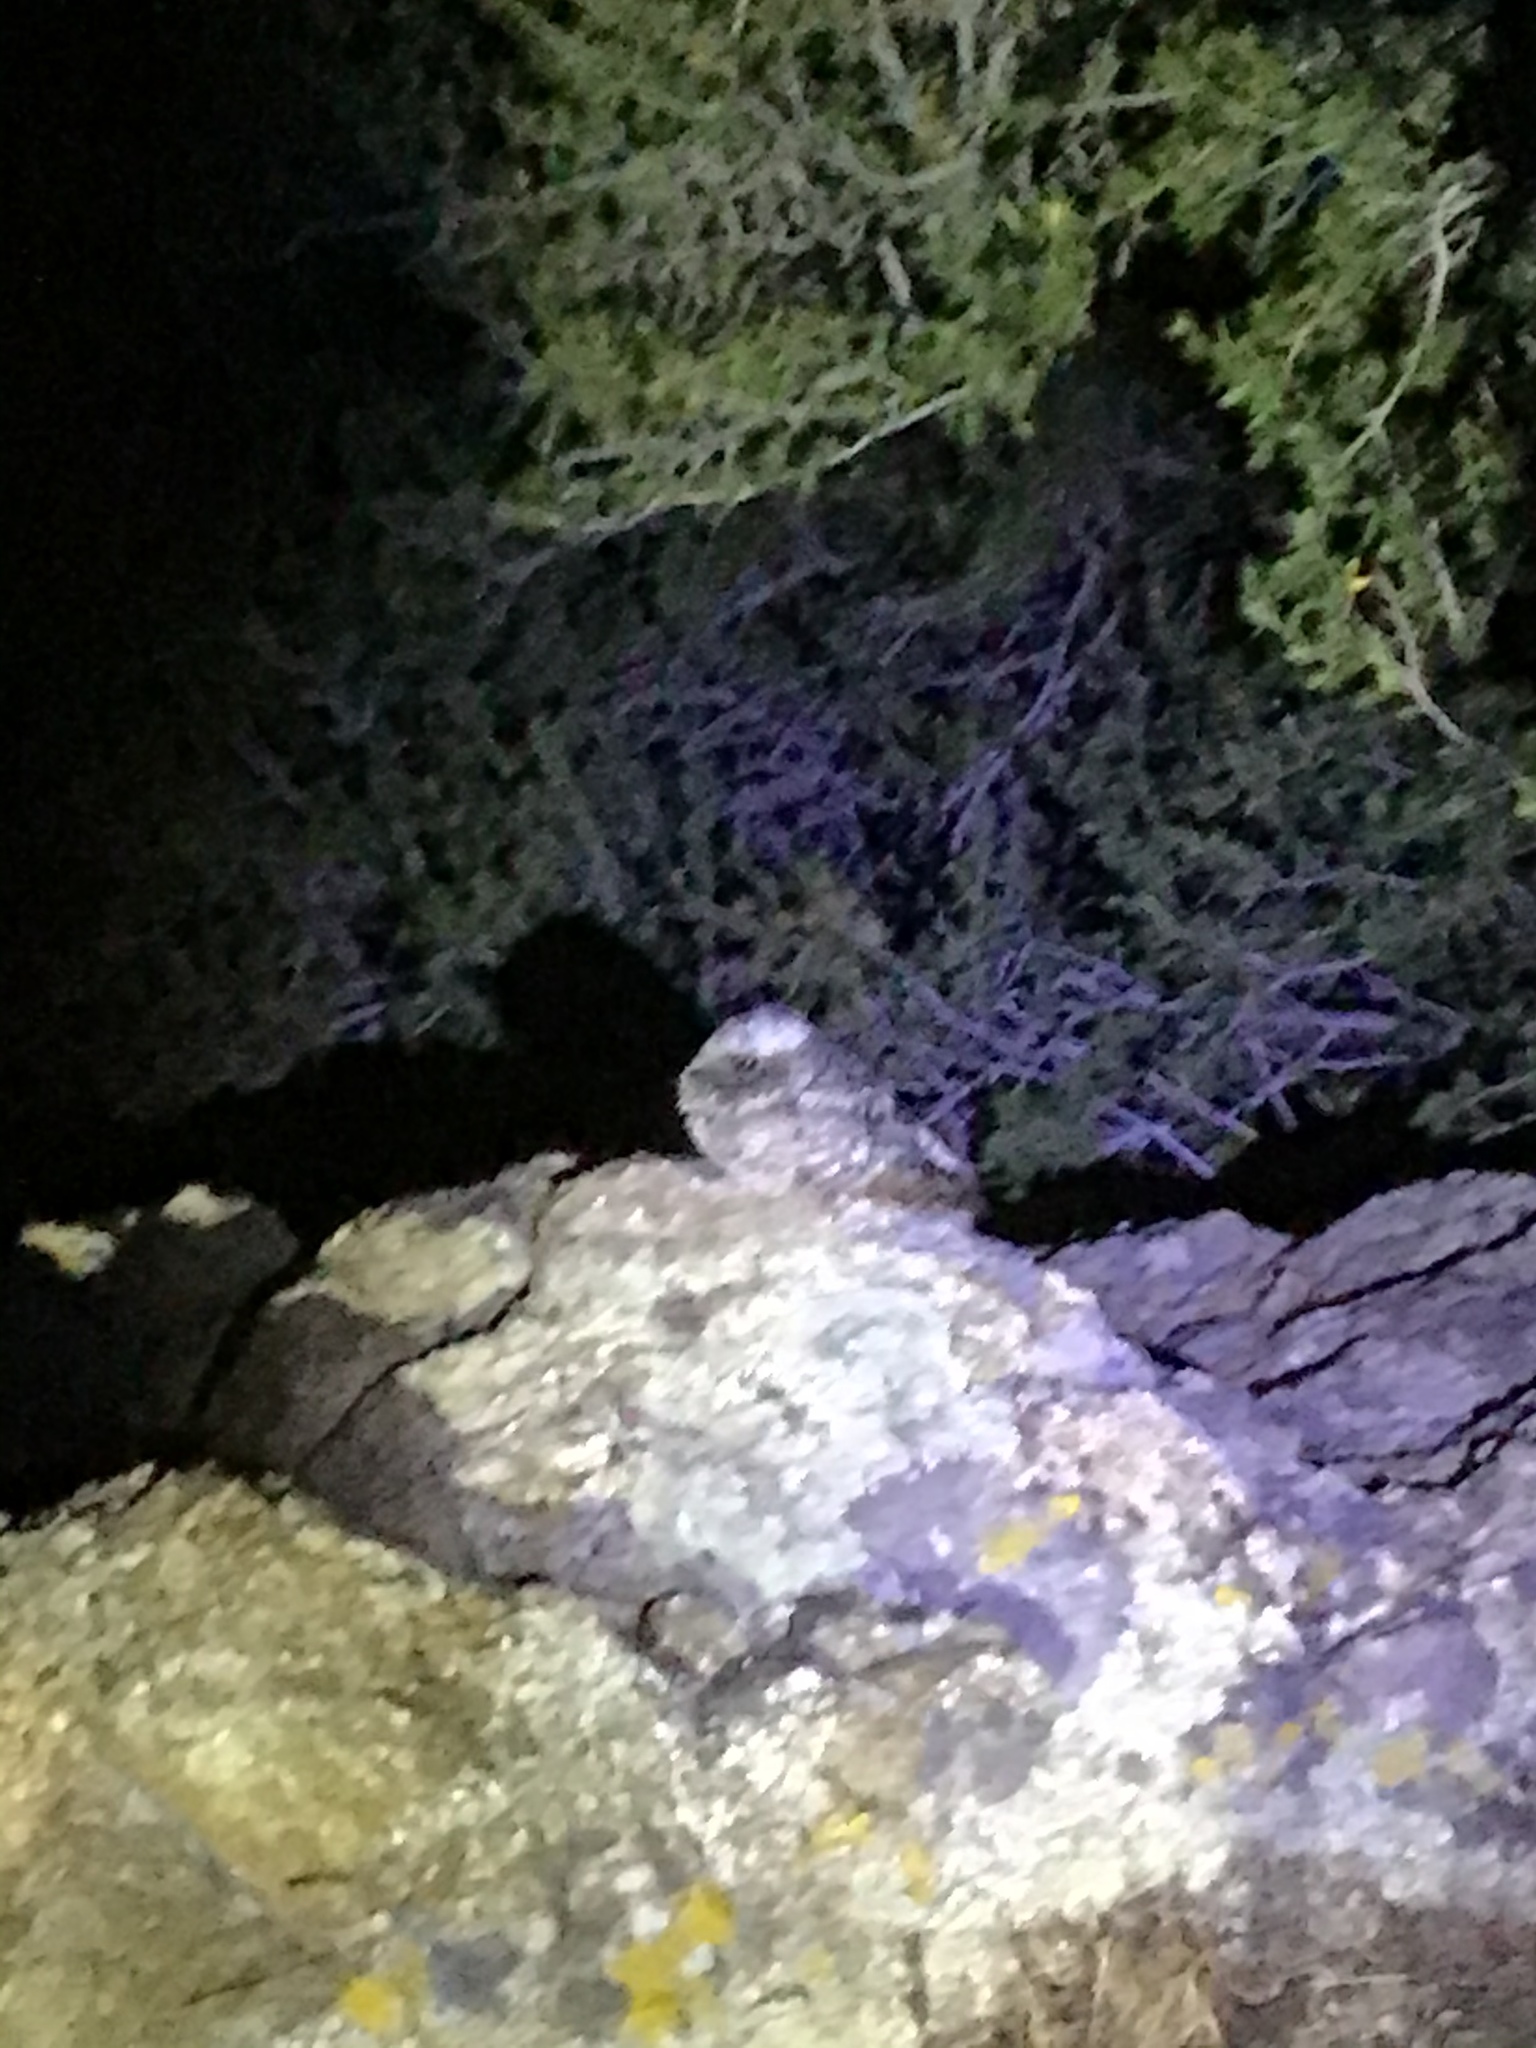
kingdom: Animalia
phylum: Chordata
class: Aves
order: Caprimulgiformes
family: Caprimulgidae
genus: Phalaenoptilus
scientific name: Phalaenoptilus nuttallii
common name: Common poorwill
